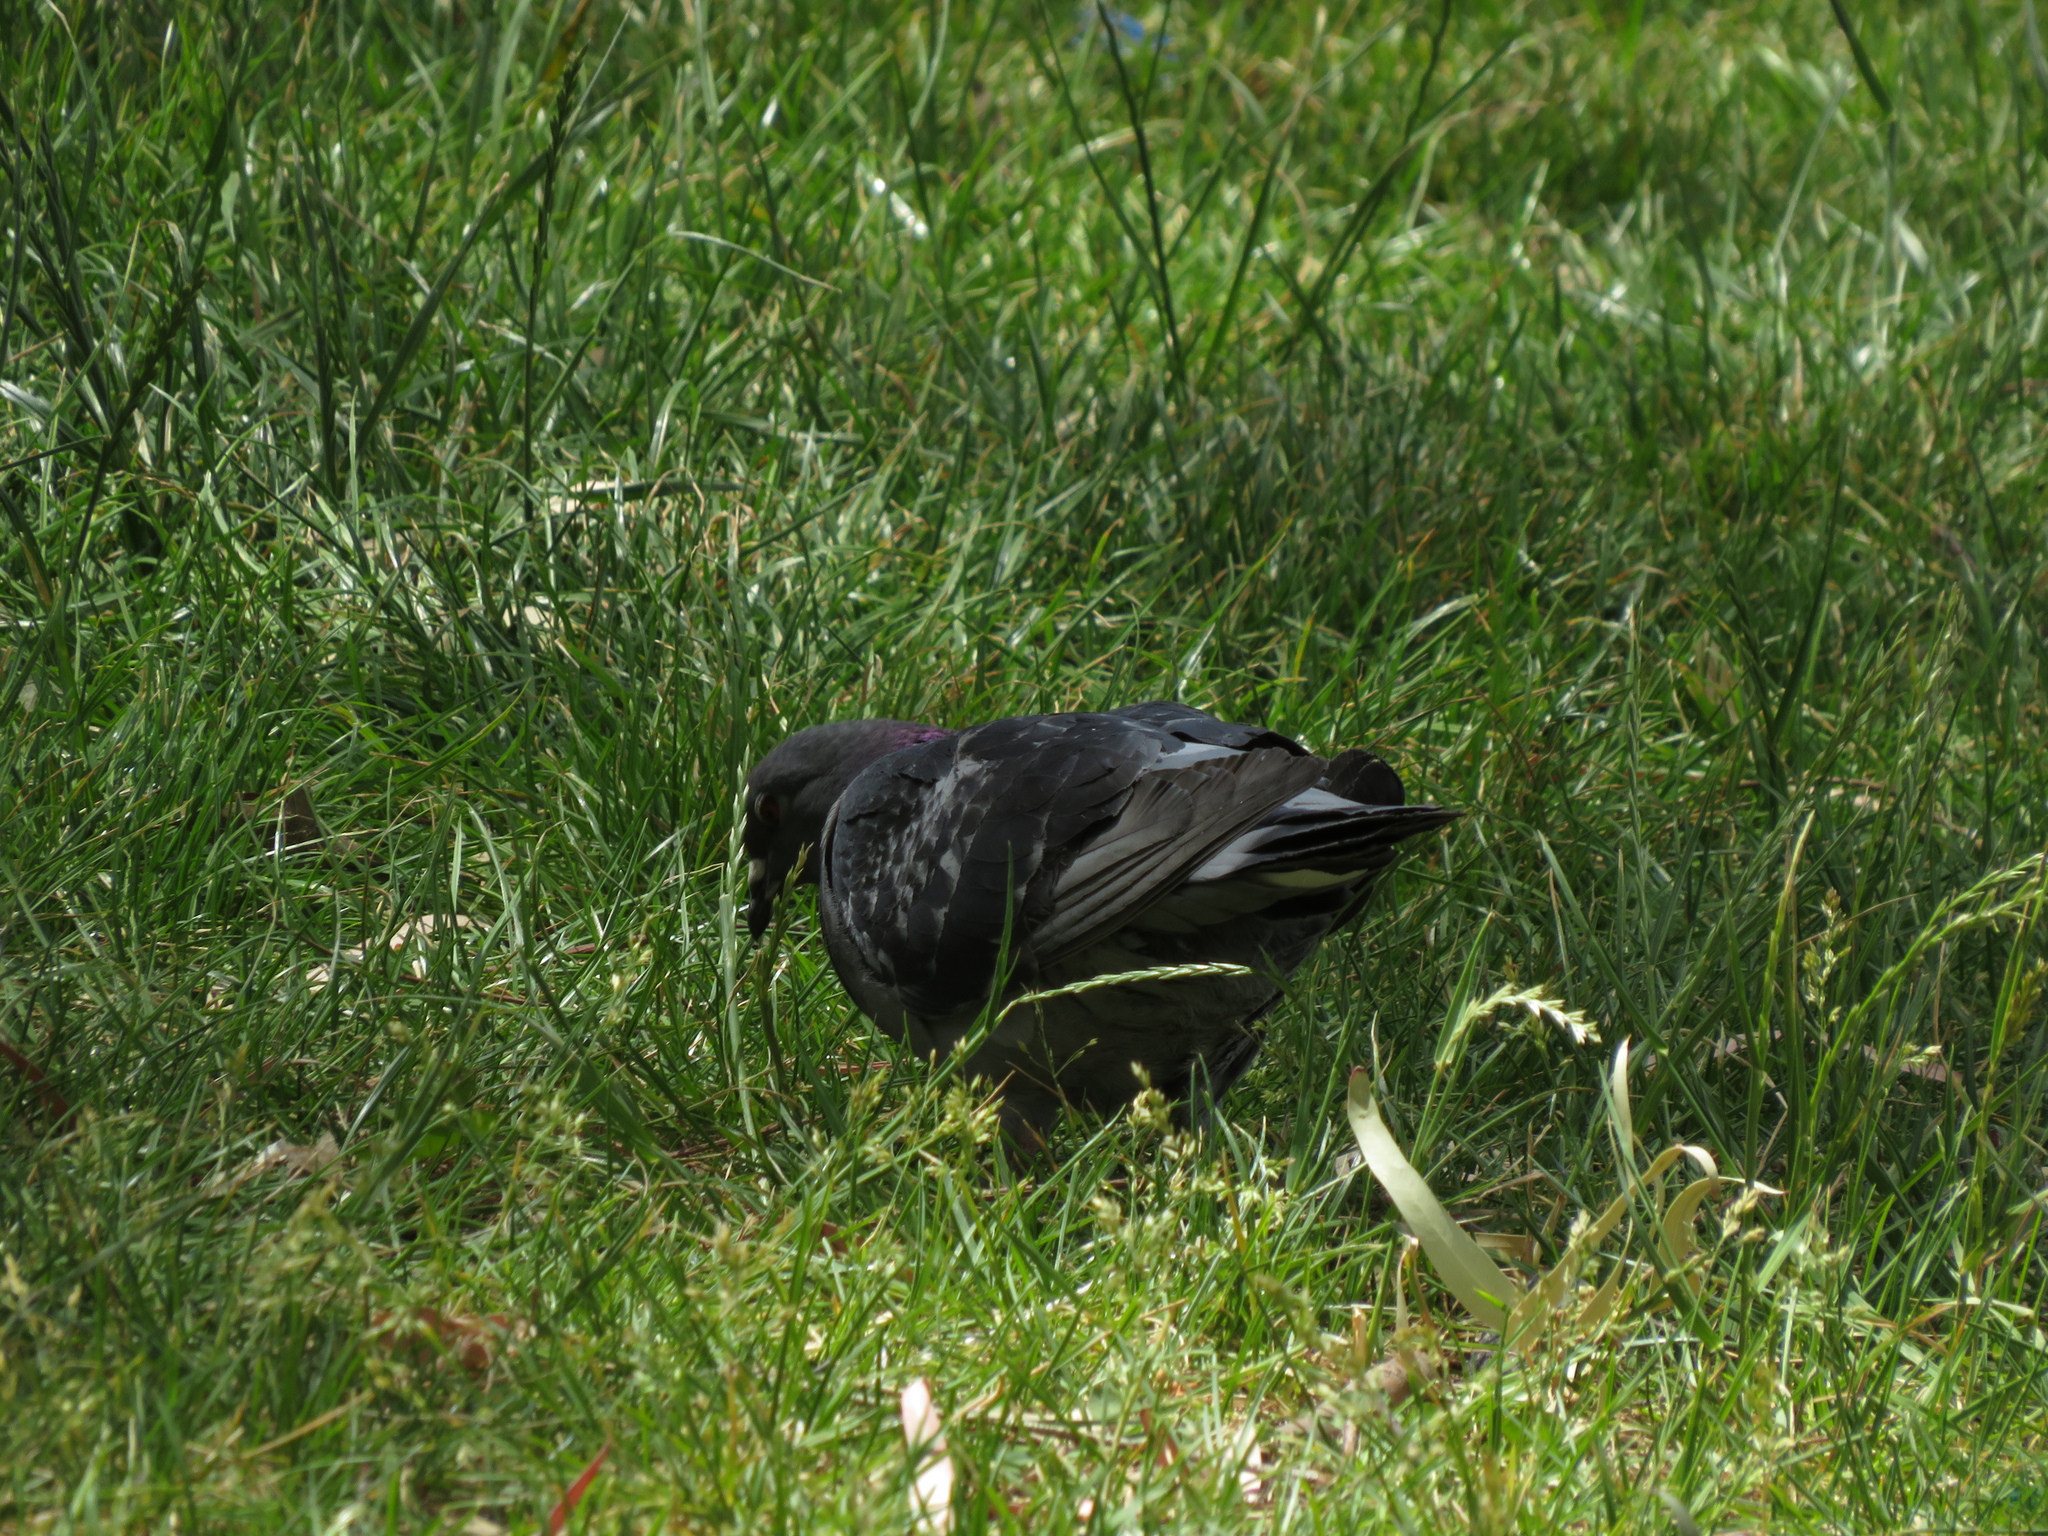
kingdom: Animalia
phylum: Chordata
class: Aves
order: Columbiformes
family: Columbidae
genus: Columba
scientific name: Columba livia
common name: Rock pigeon
